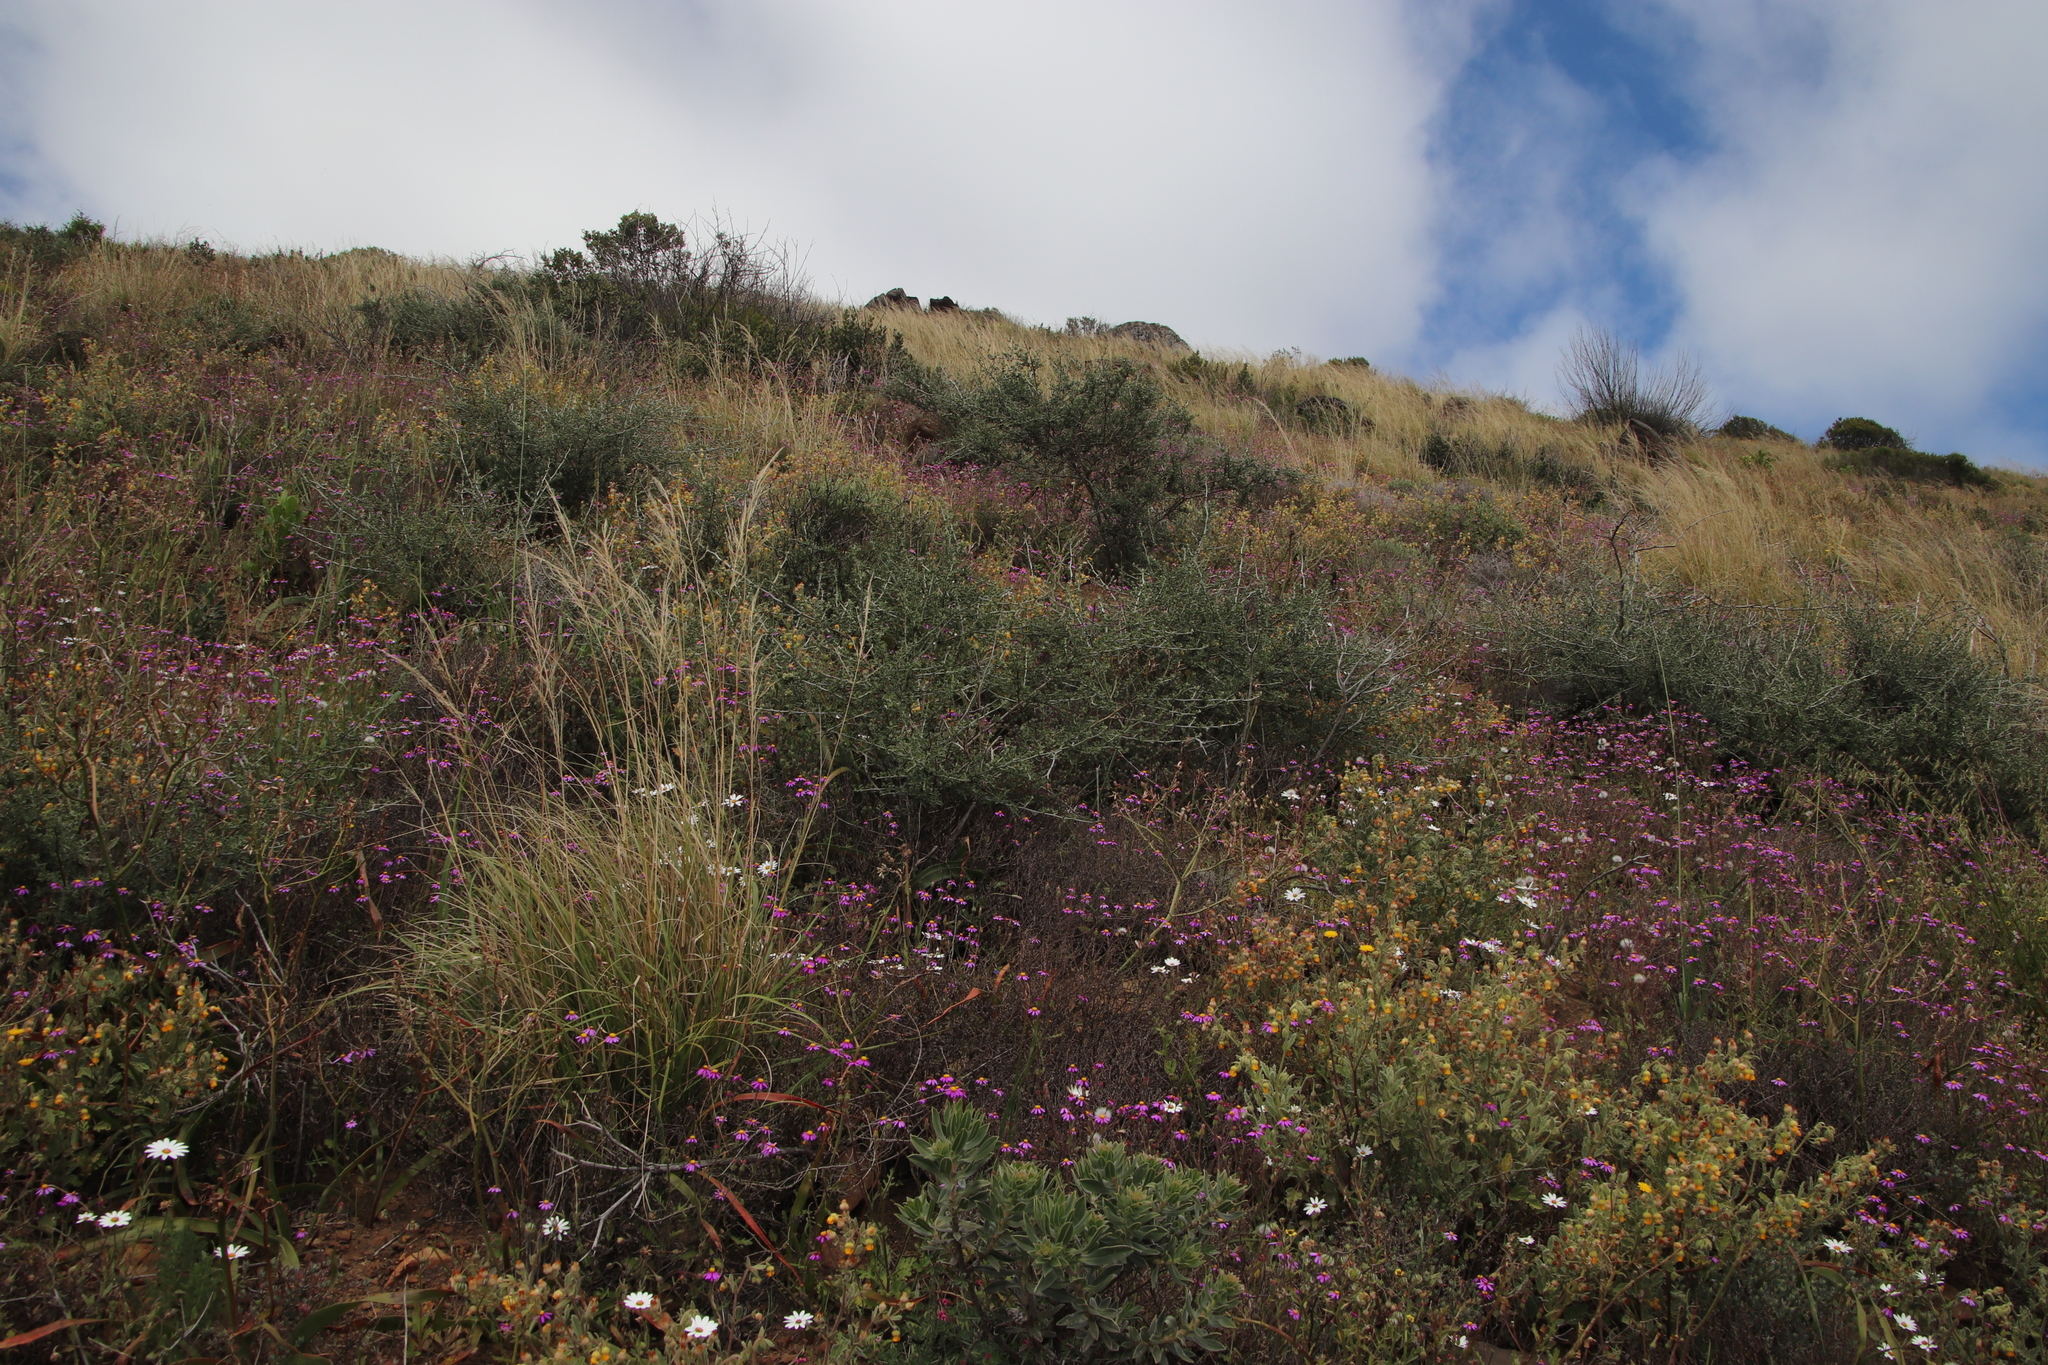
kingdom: Plantae
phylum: Tracheophyta
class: Magnoliopsida
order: Fabales
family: Fabaceae
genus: Psoralea
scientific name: Psoralea hirta
